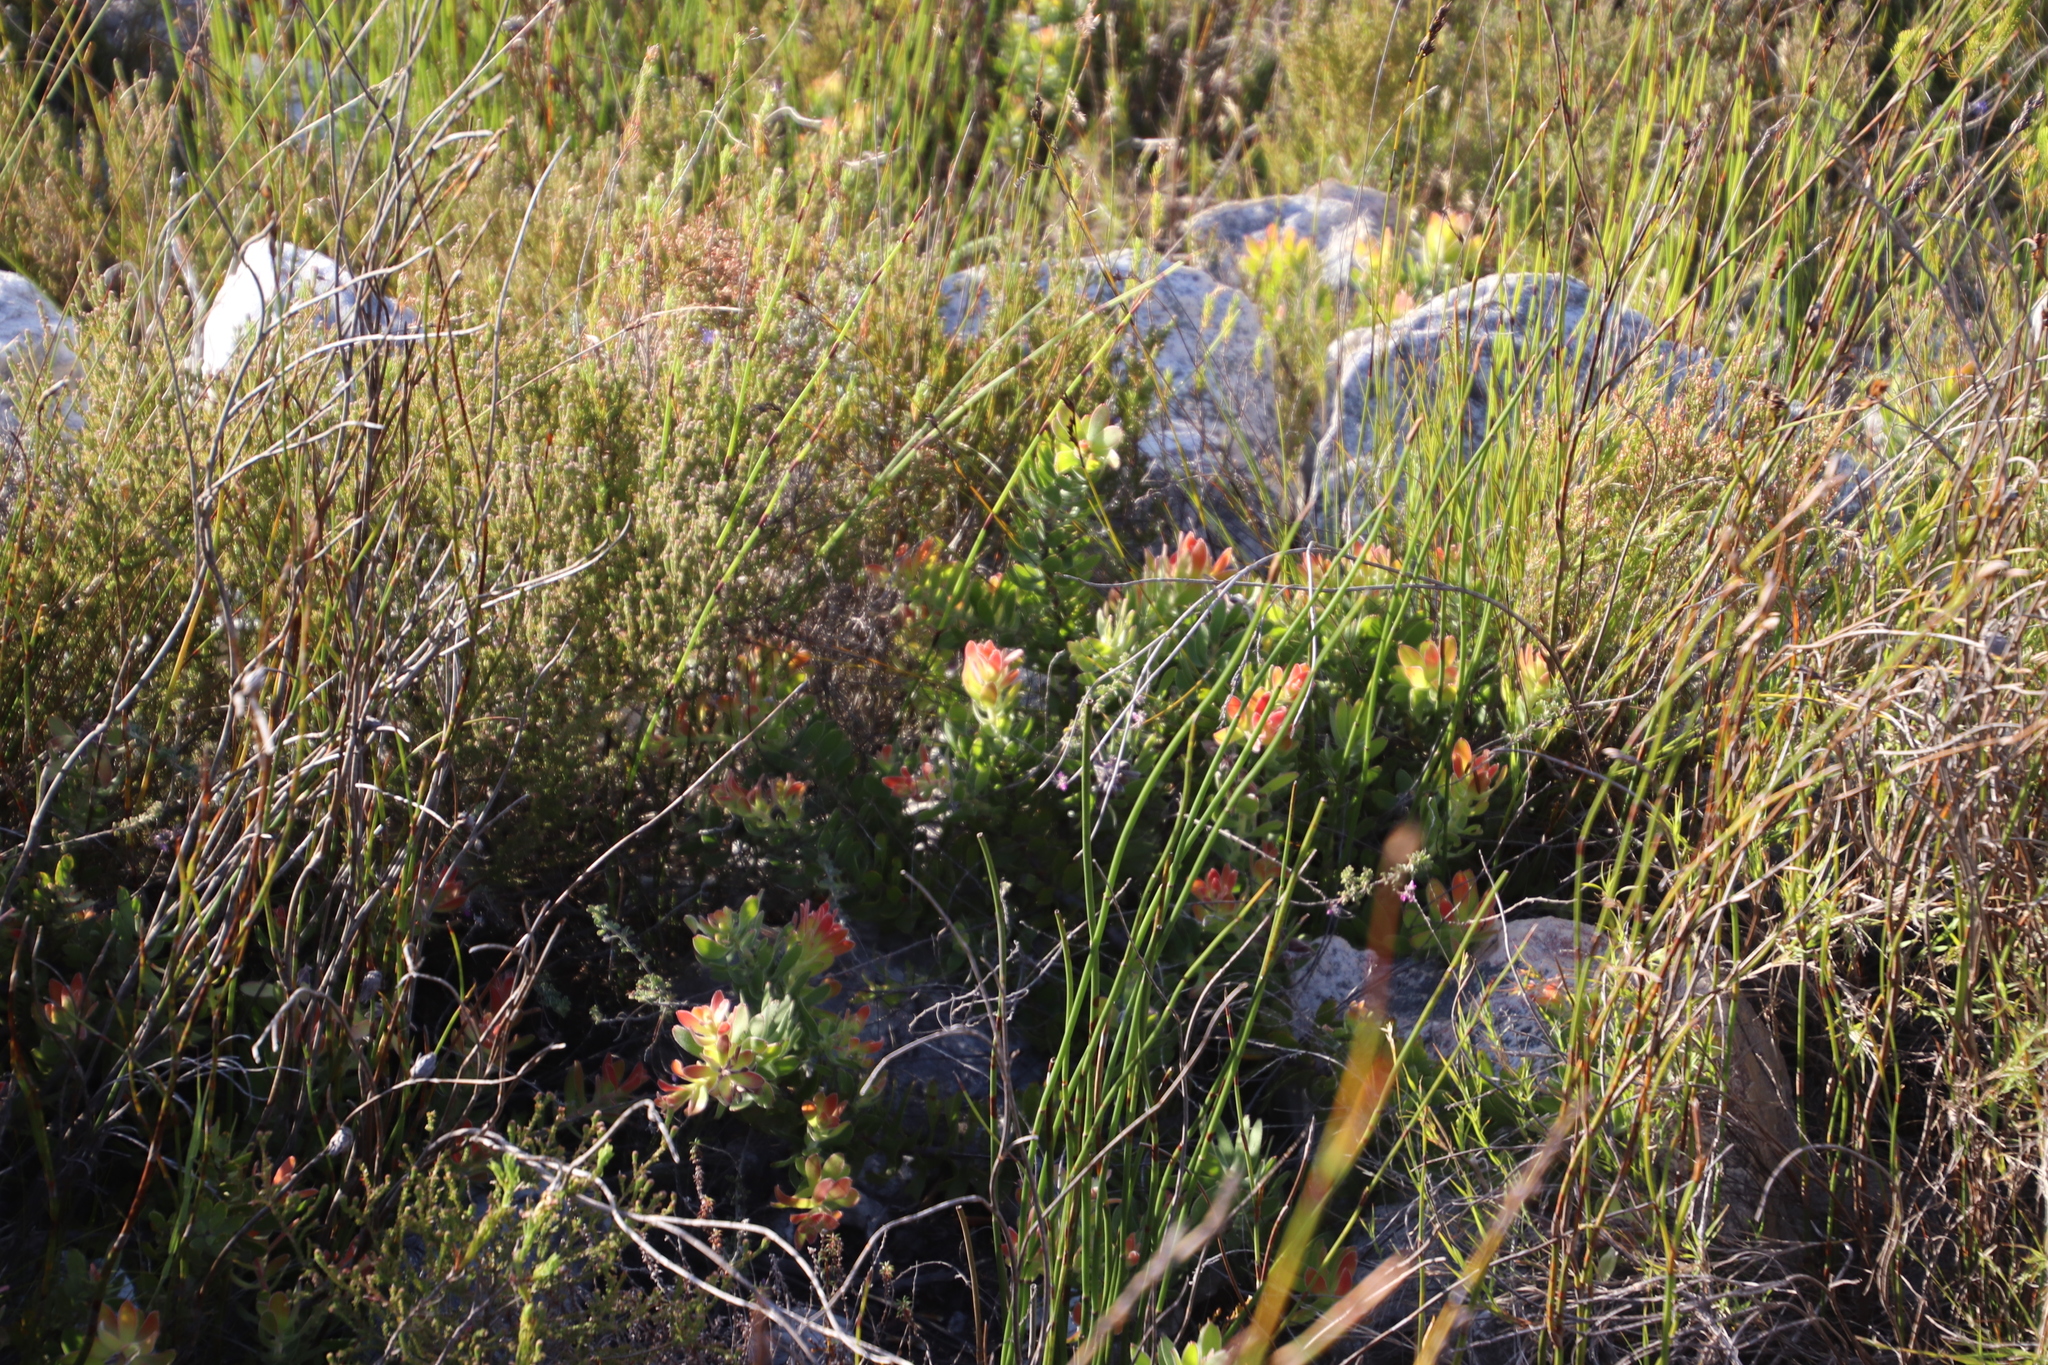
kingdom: Plantae
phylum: Tracheophyta
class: Magnoliopsida
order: Proteales
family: Proteaceae
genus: Mimetes
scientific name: Mimetes cucullatus
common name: Common pagoda
